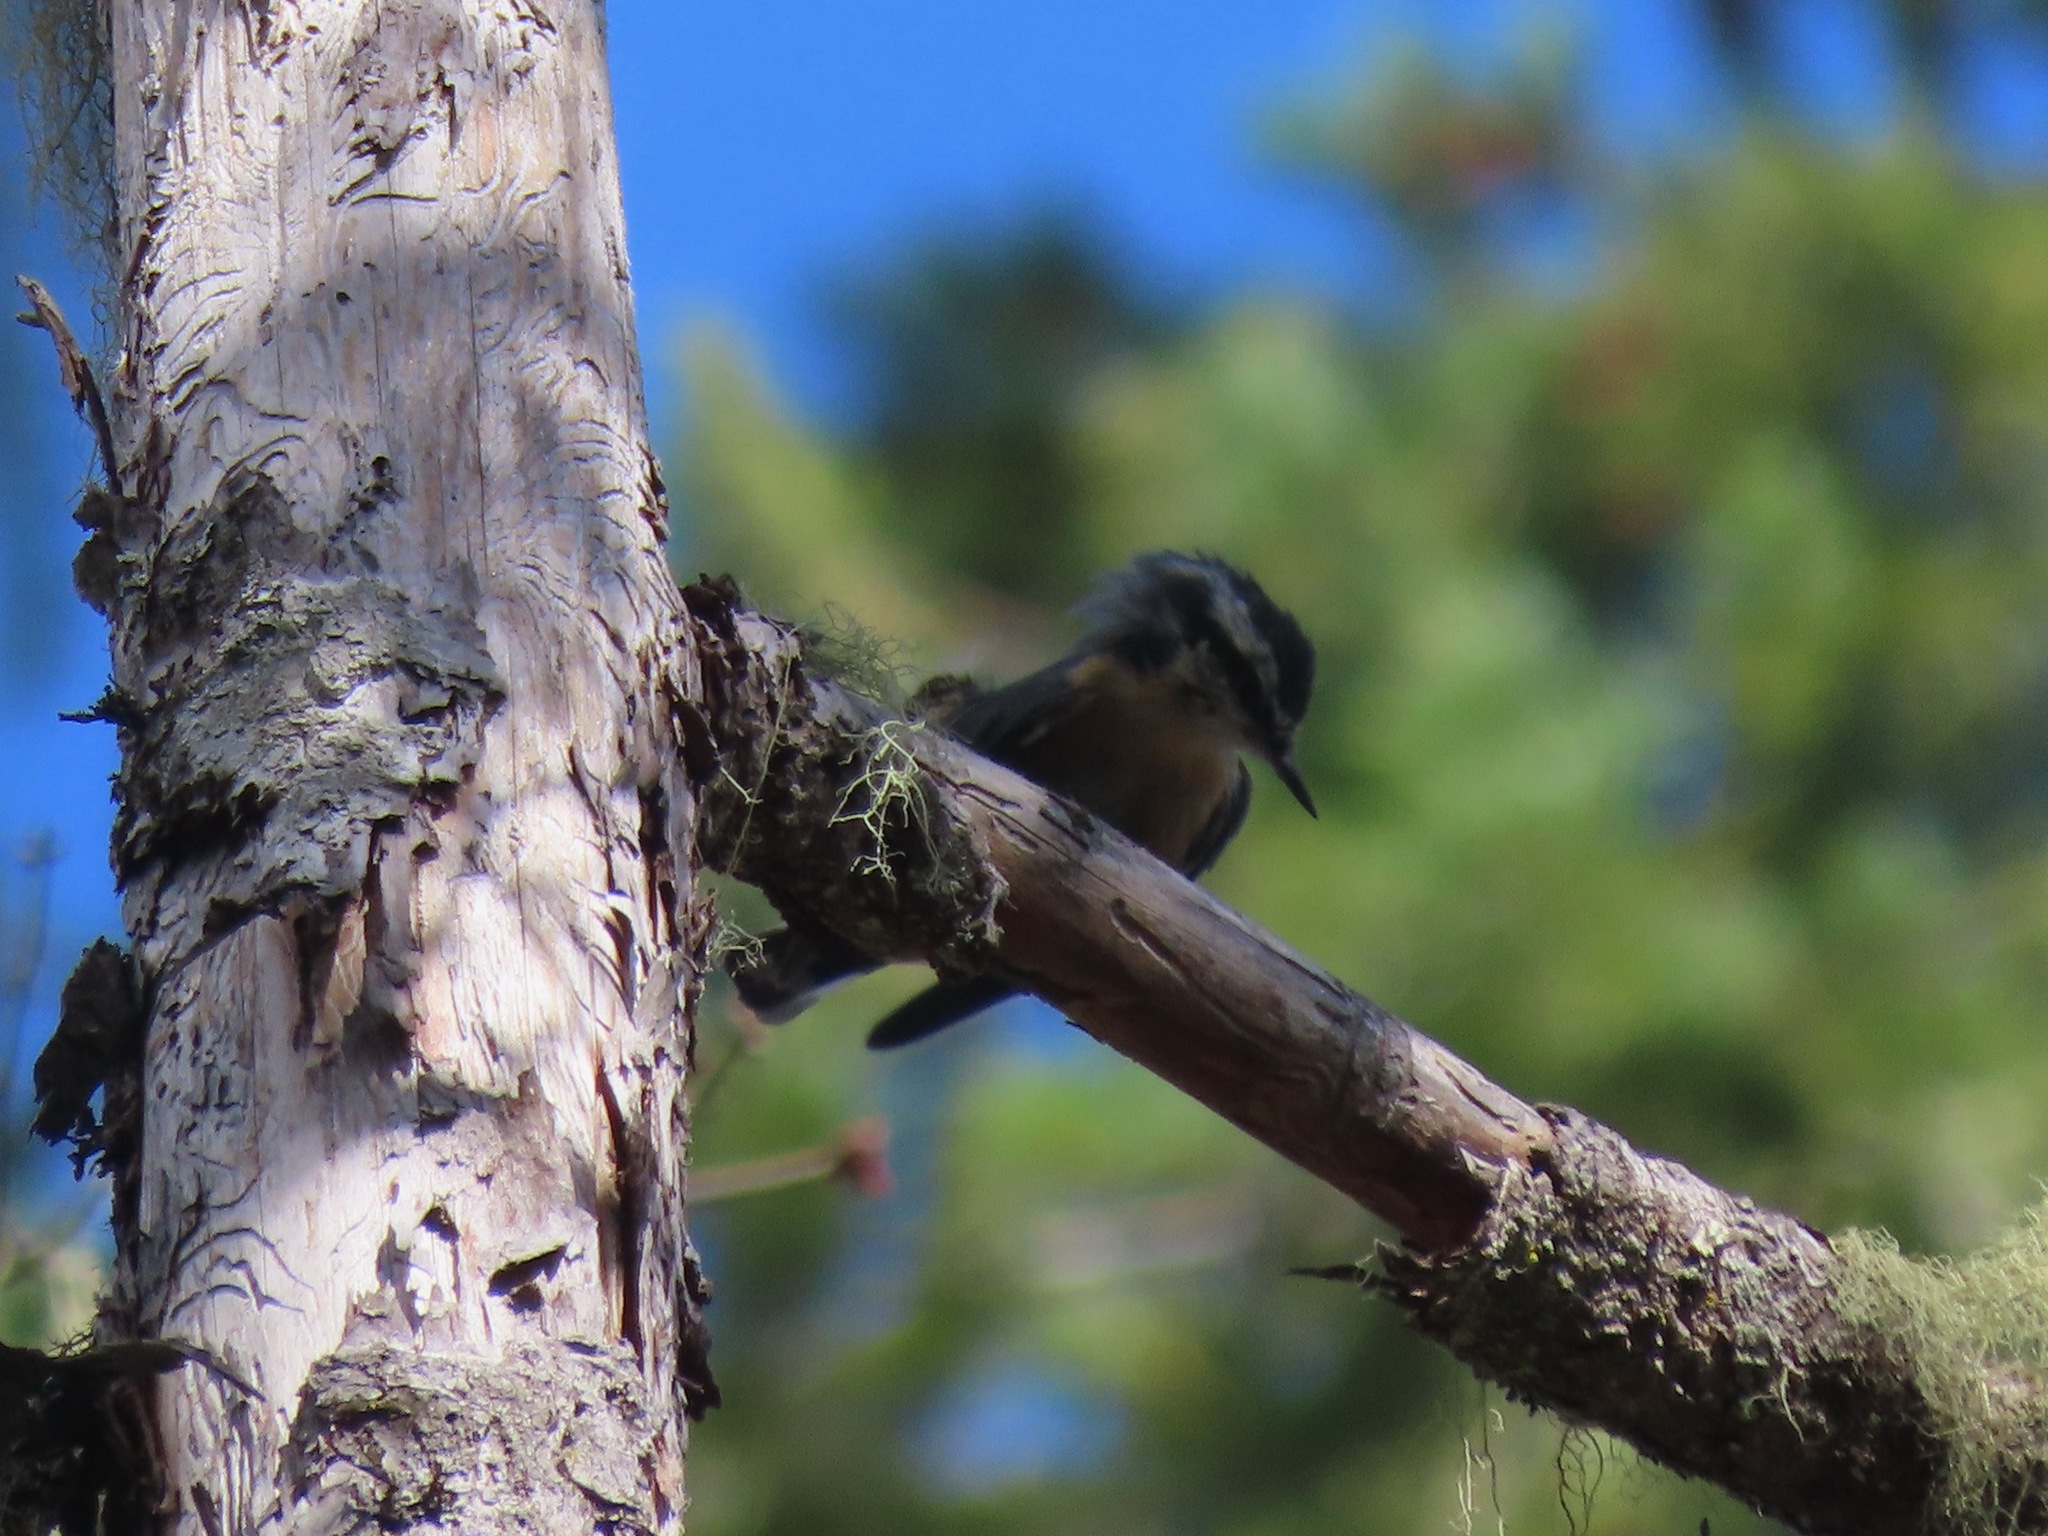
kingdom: Animalia
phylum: Chordata
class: Aves
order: Passeriformes
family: Sittidae
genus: Sitta
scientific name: Sitta canadensis
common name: Red-breasted nuthatch
